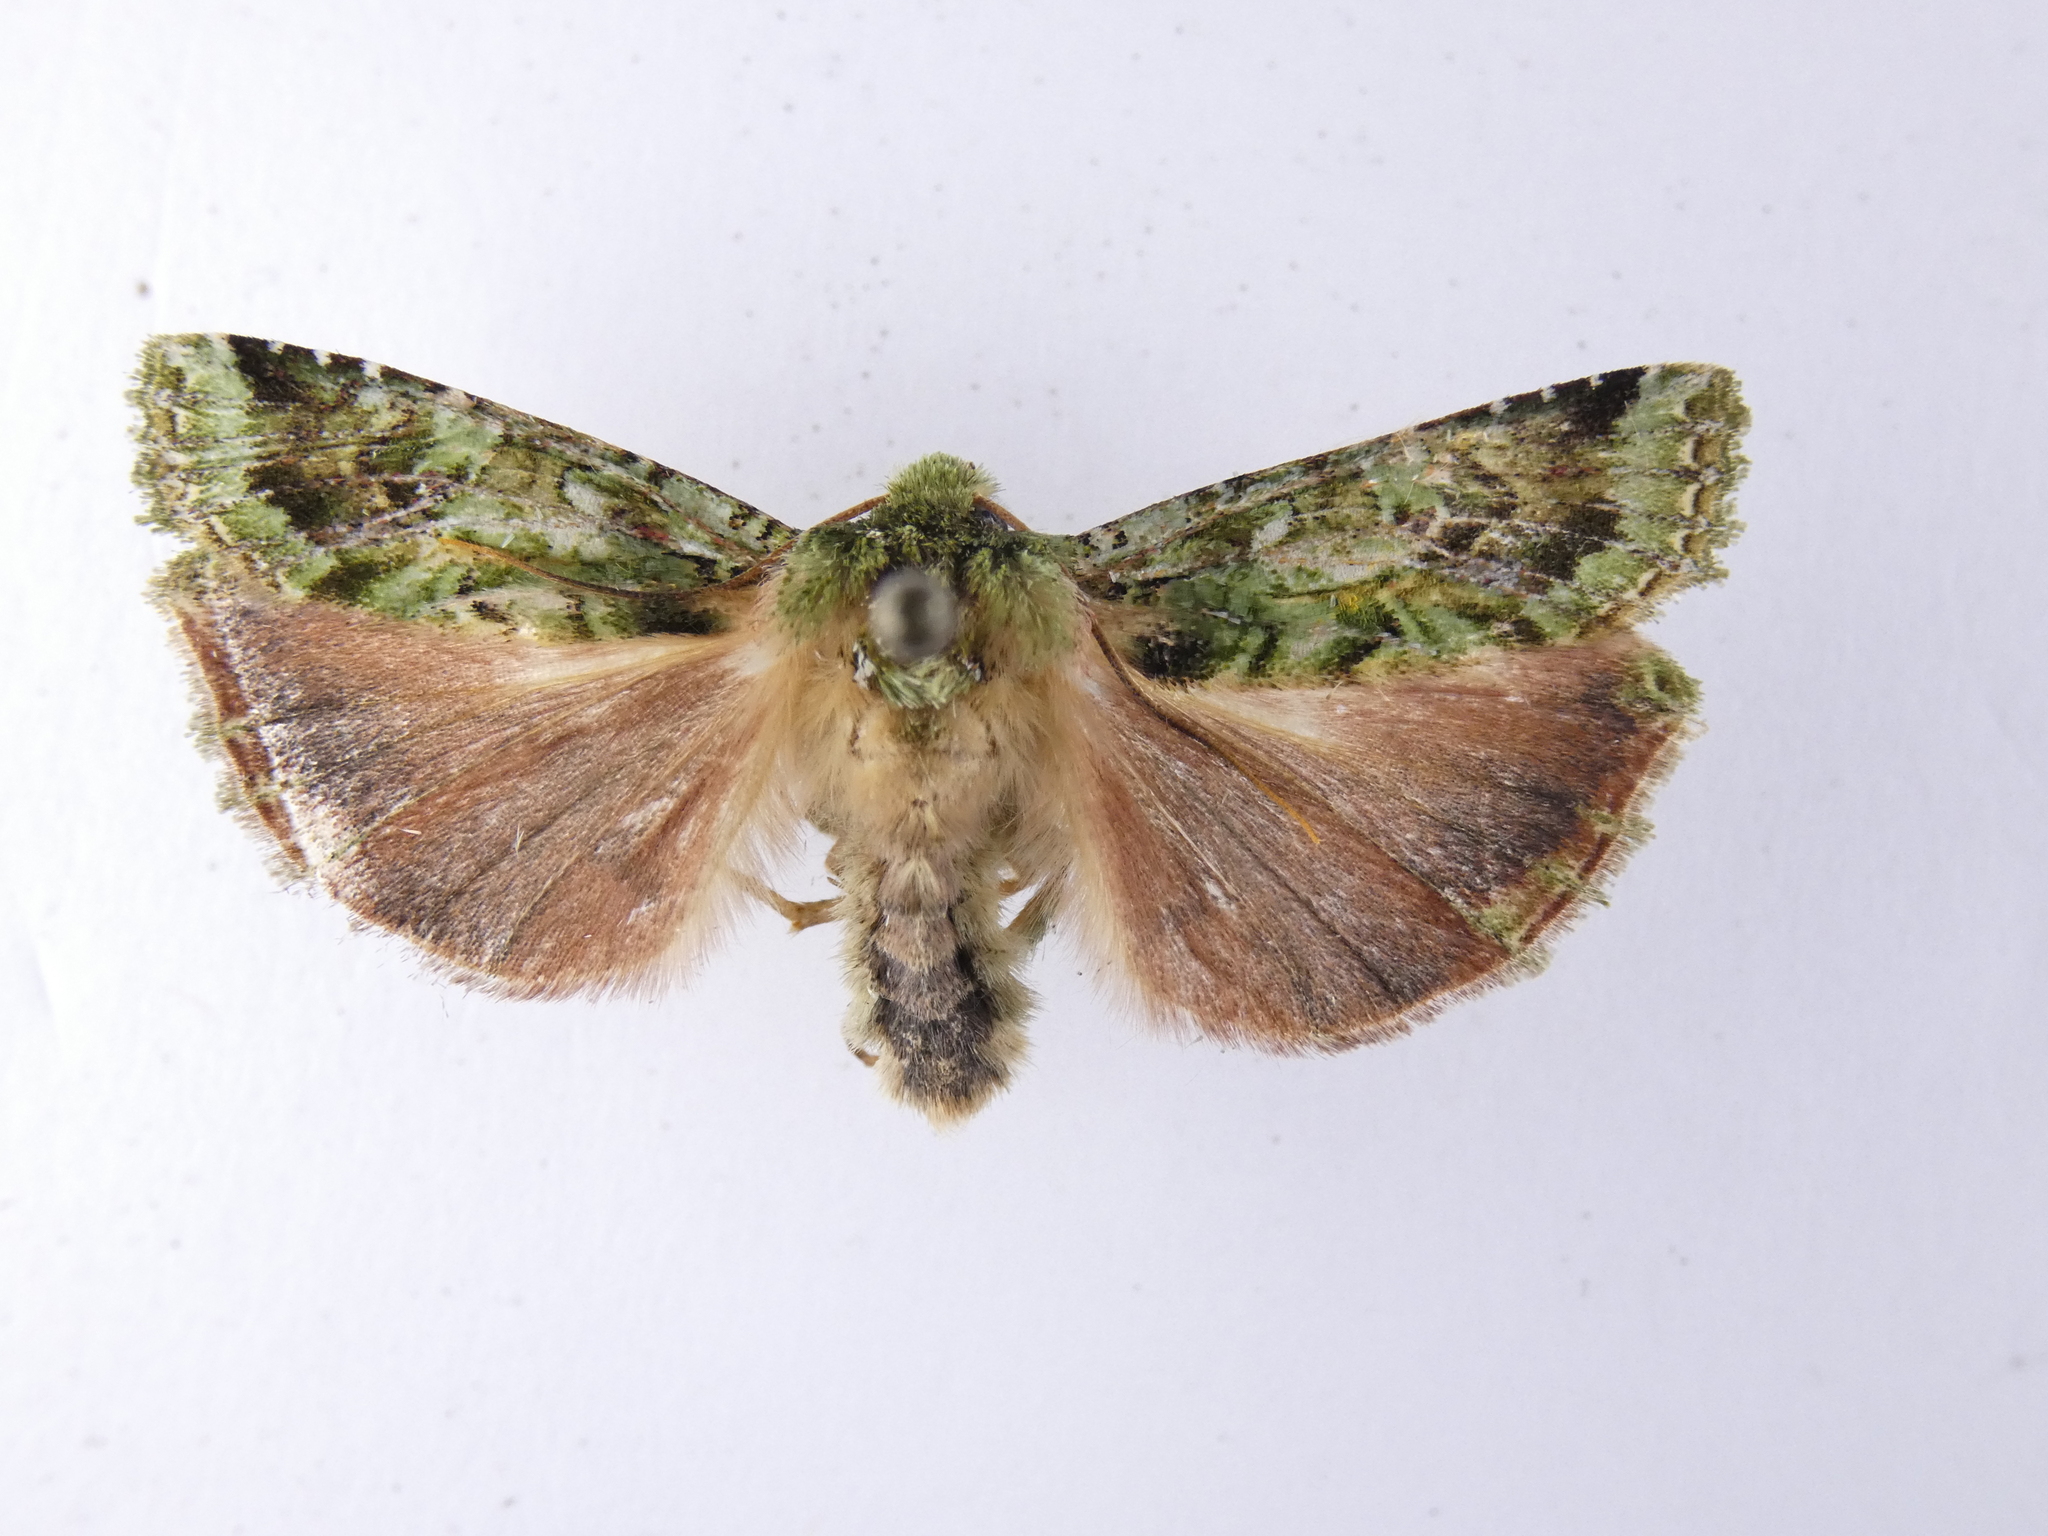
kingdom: Animalia
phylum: Arthropoda
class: Insecta
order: Lepidoptera
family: Noctuidae
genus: Feredayia
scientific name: Feredayia grammosa
